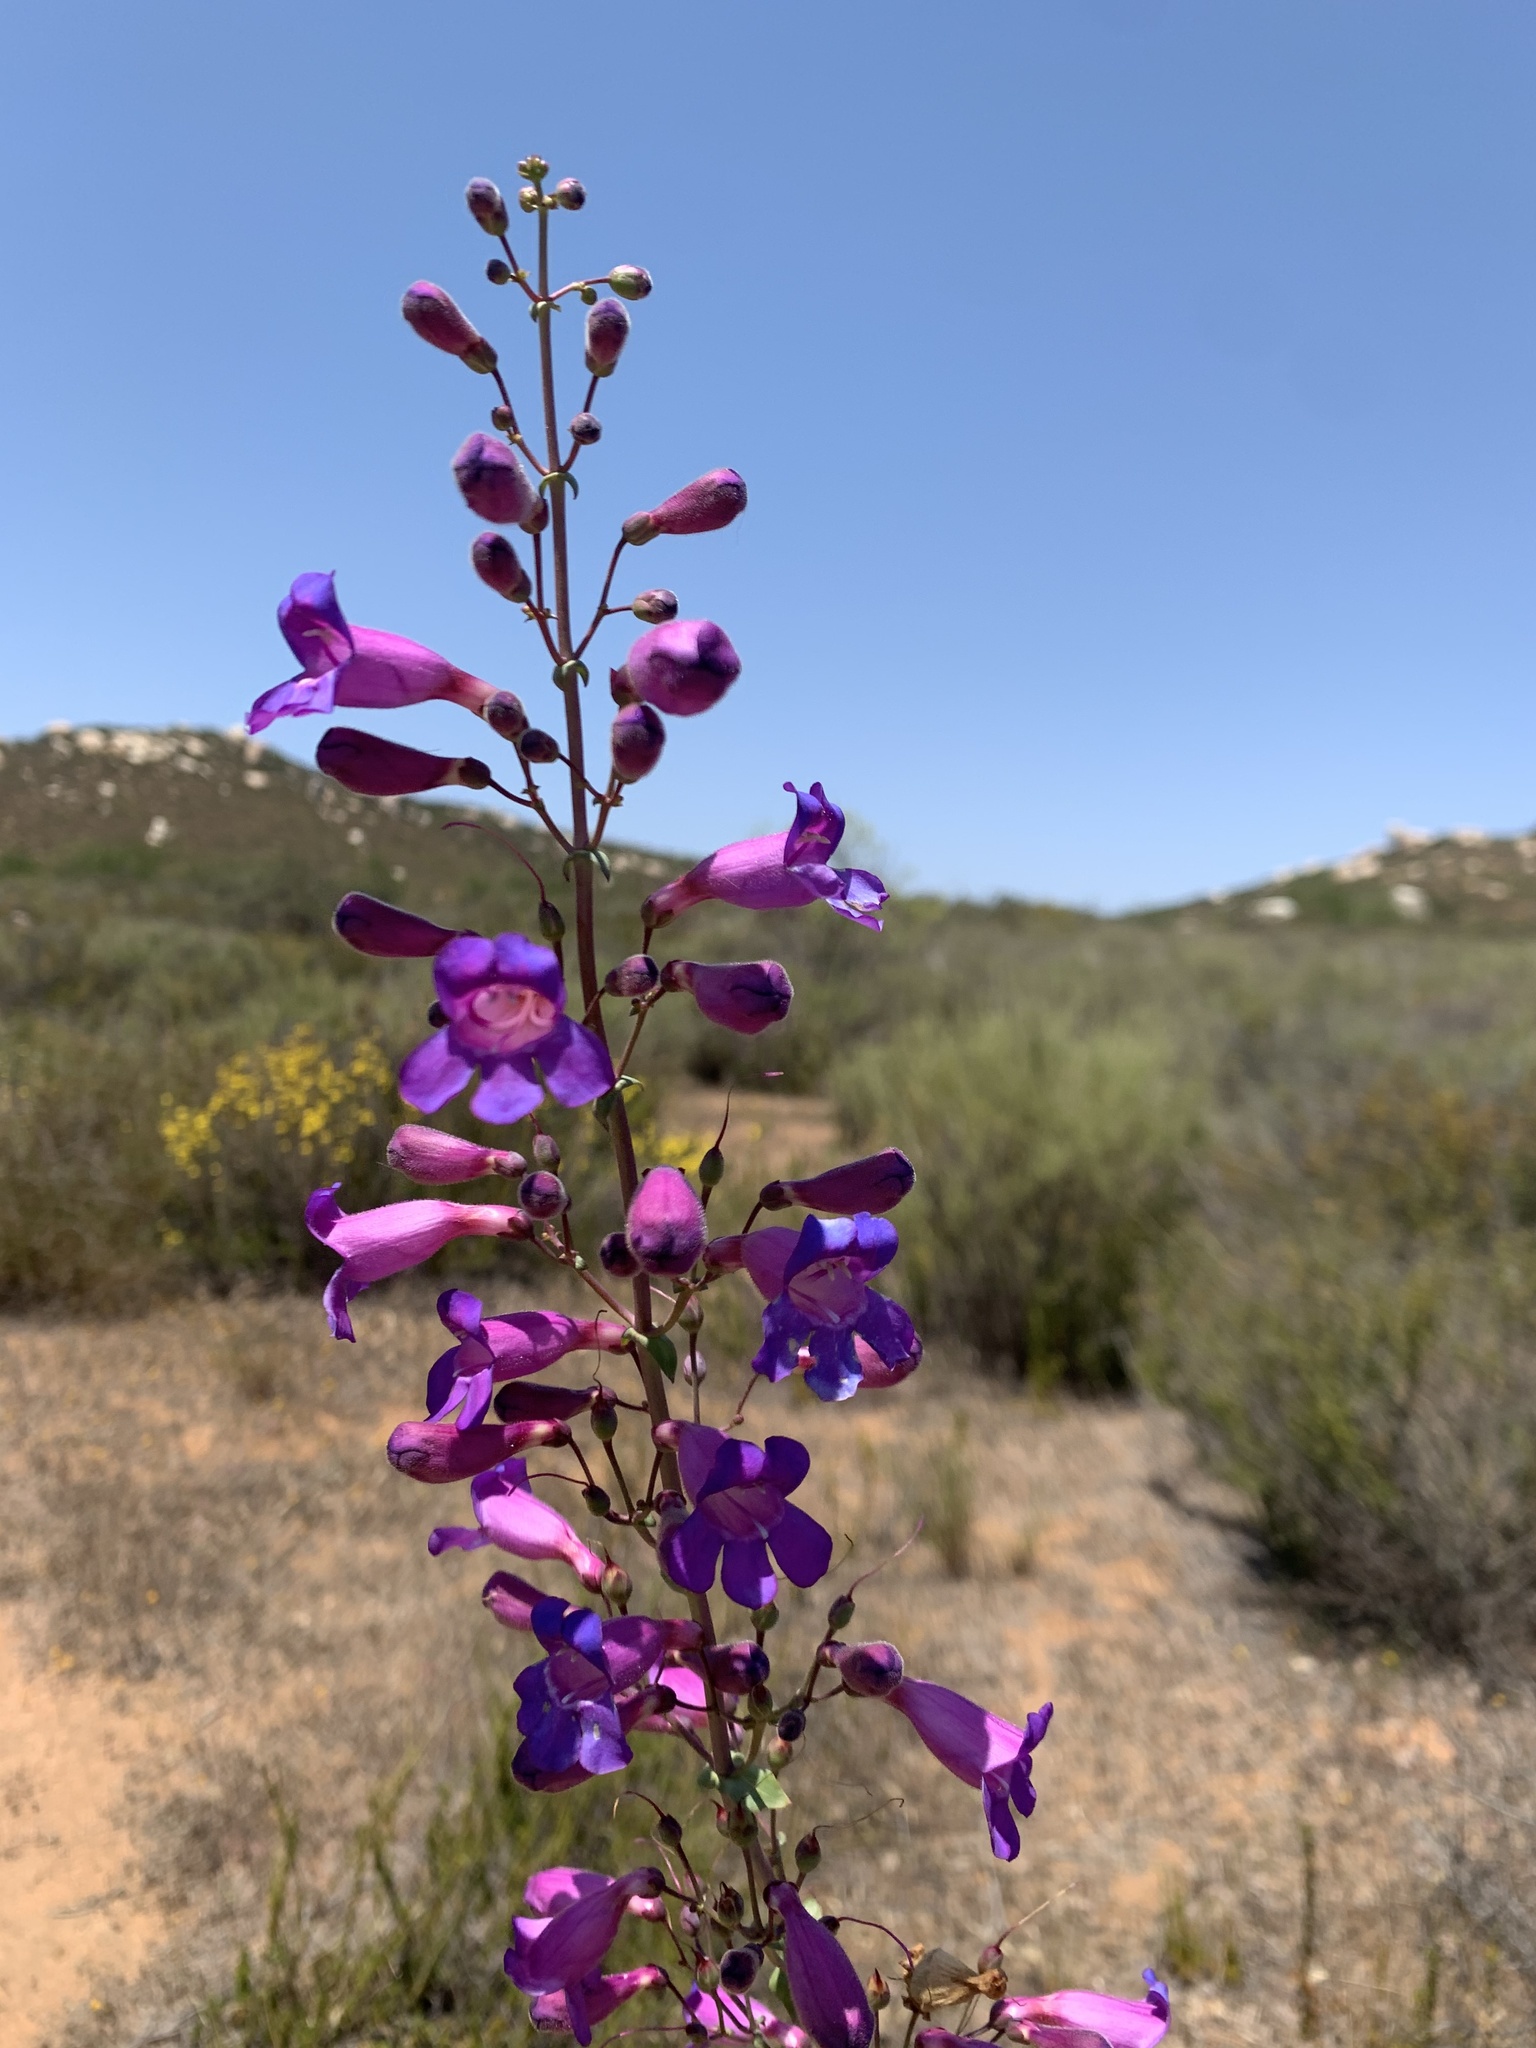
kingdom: Plantae
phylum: Tracheophyta
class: Magnoliopsida
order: Lamiales
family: Plantaginaceae
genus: Penstemon
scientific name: Penstemon spectabilis
